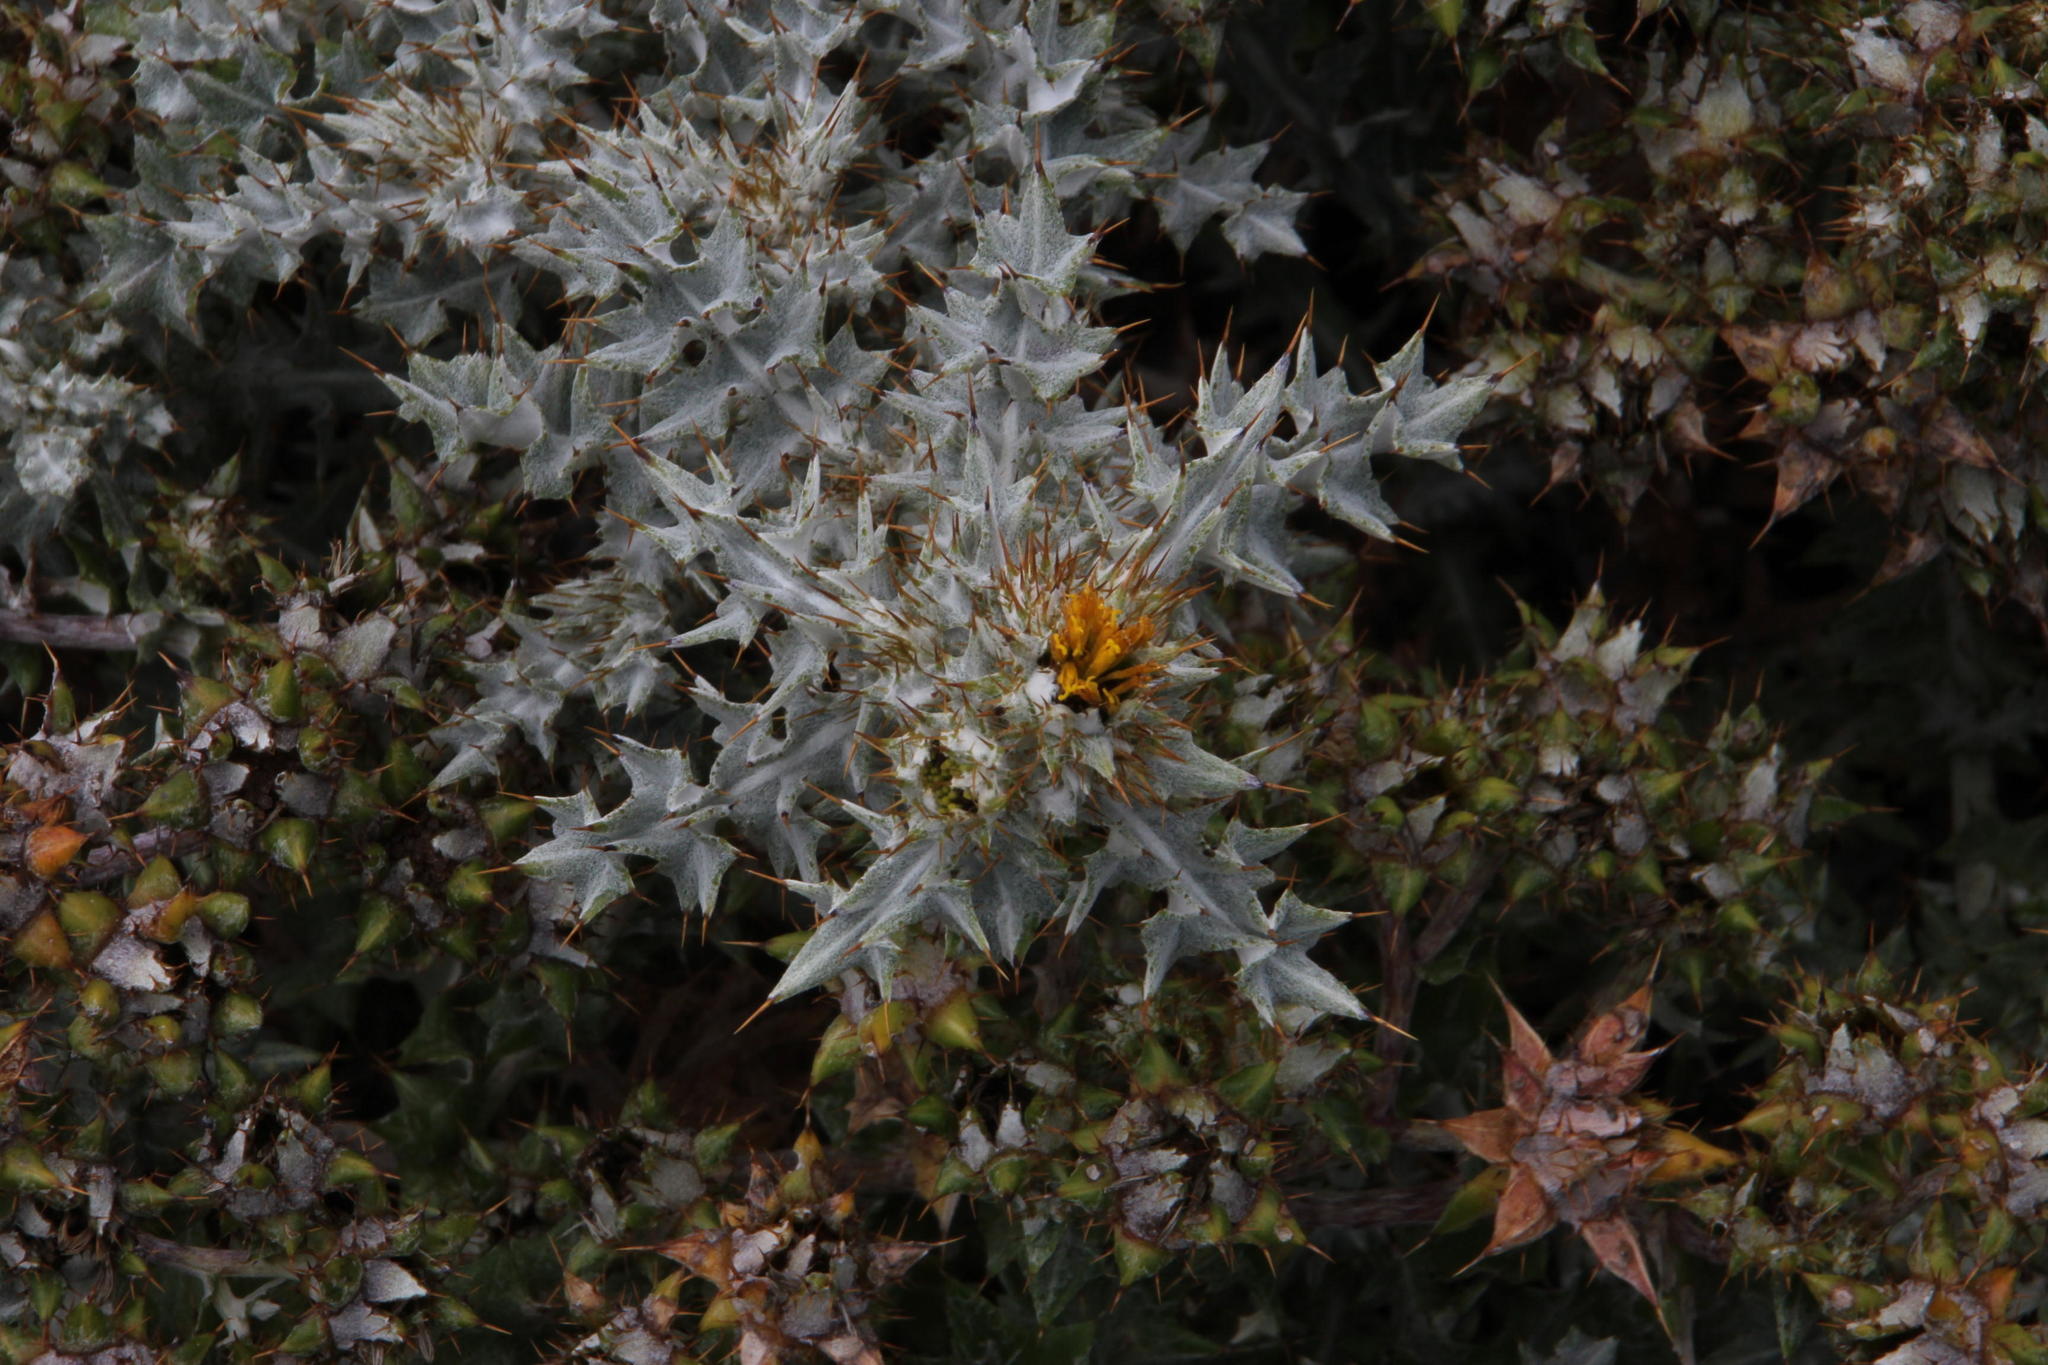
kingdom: Plantae
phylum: Tracheophyta
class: Magnoliopsida
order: Asterales
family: Asteraceae
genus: Berkheya
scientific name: Berkheya rigida
